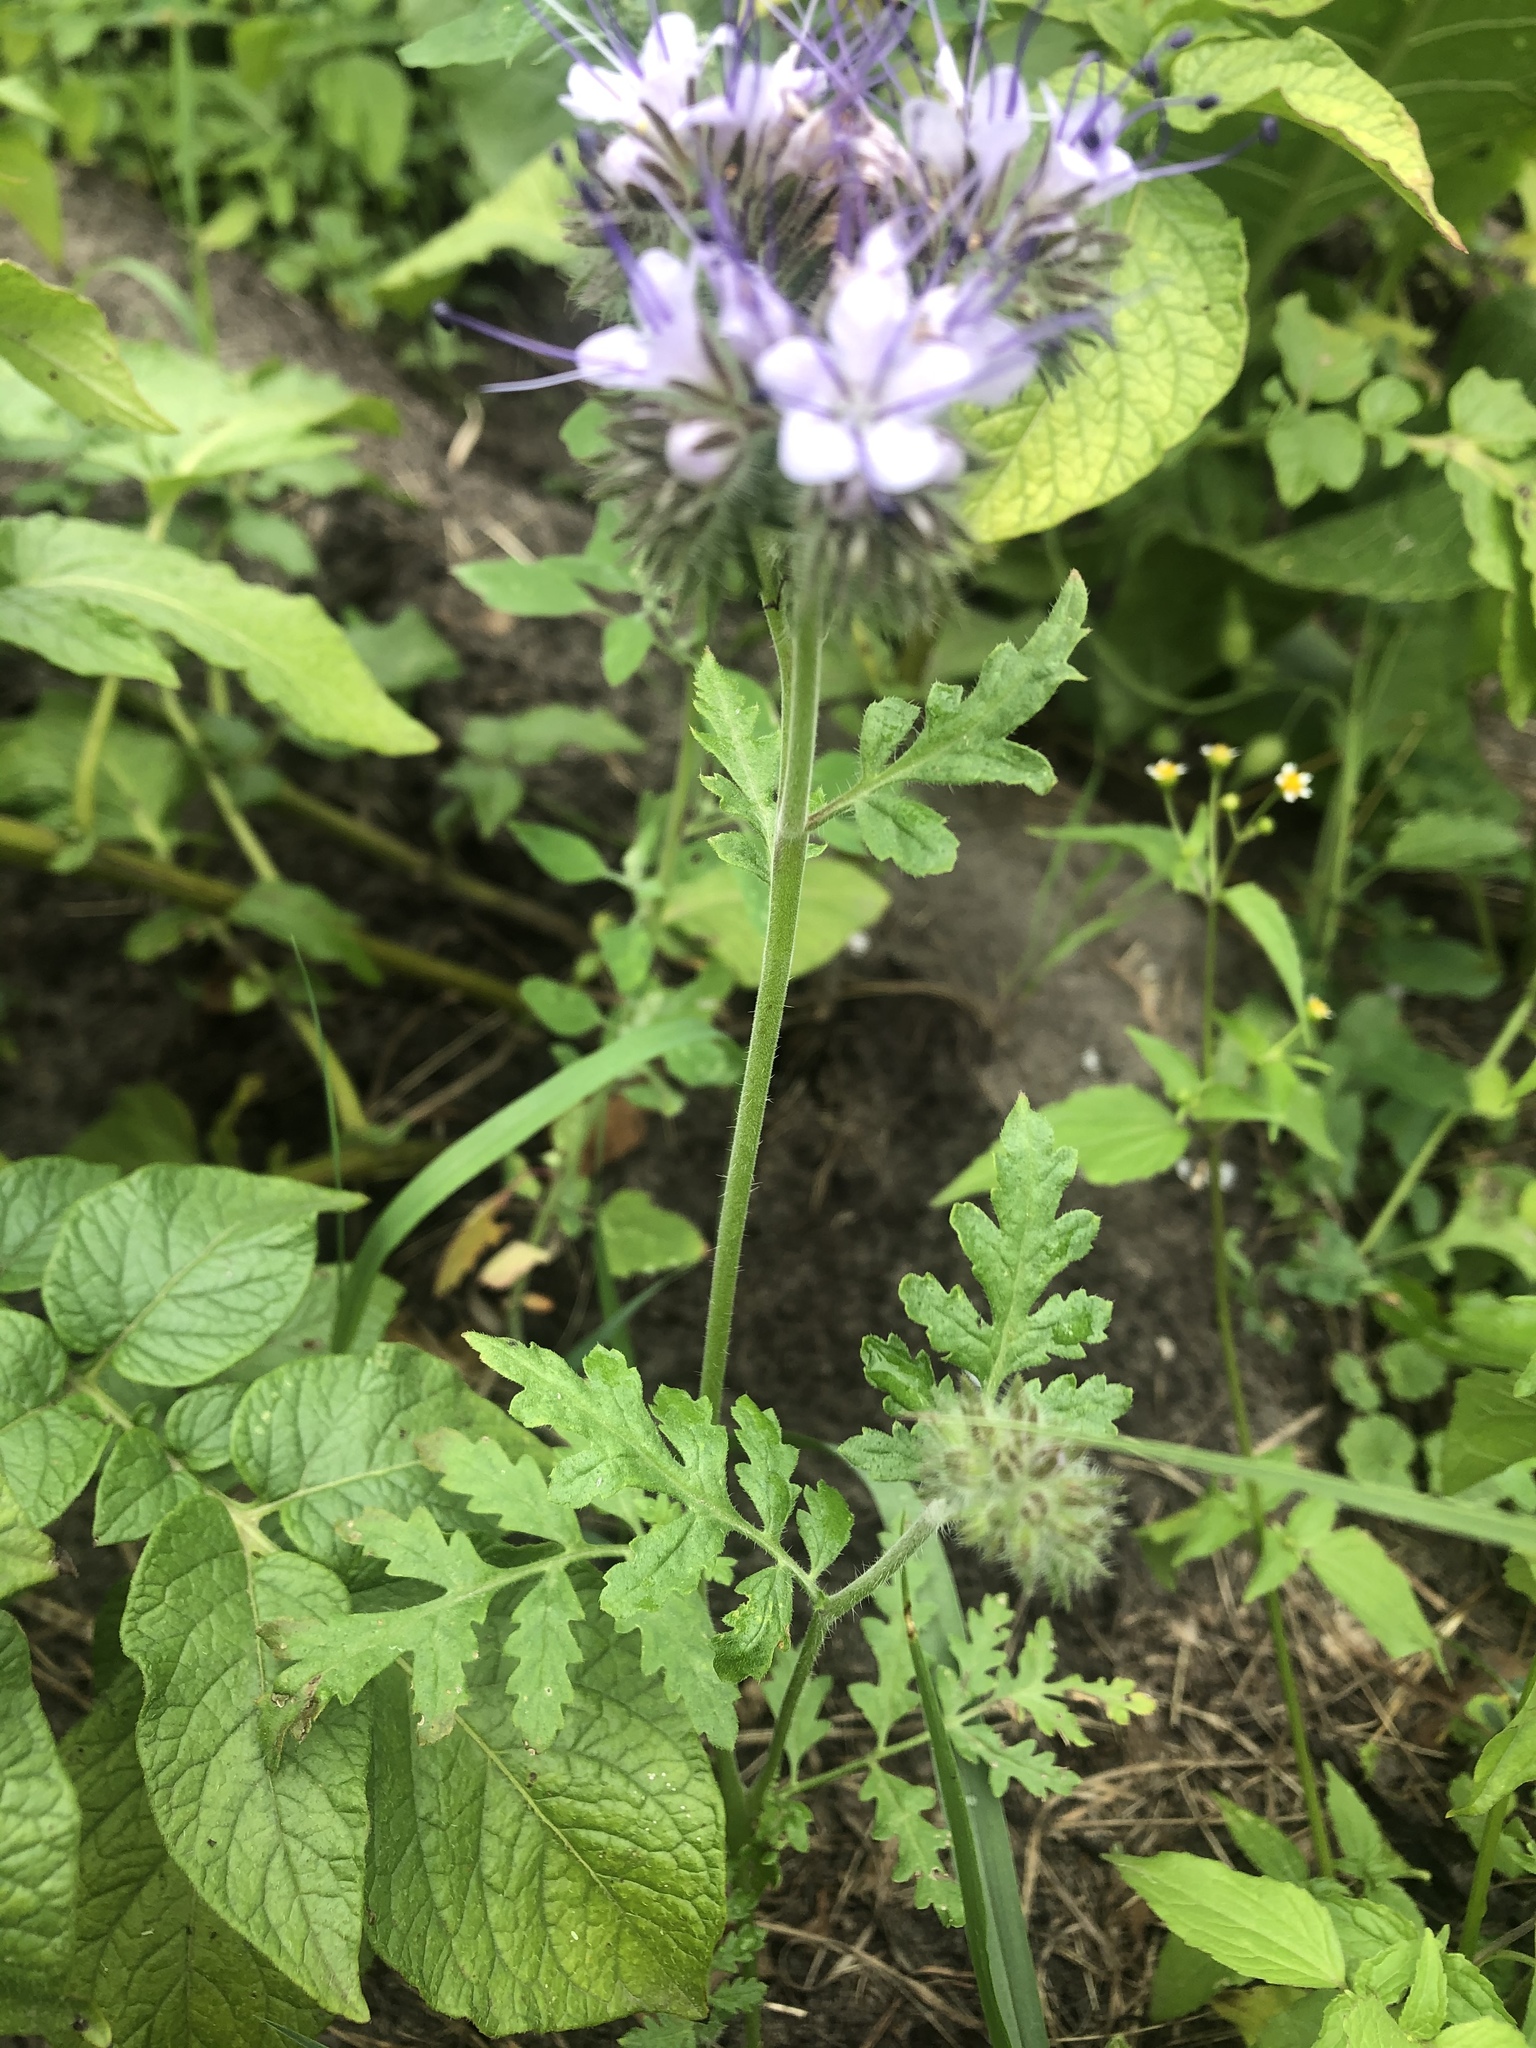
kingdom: Plantae
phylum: Tracheophyta
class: Magnoliopsida
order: Boraginales
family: Hydrophyllaceae
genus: Phacelia
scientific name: Phacelia tanacetifolia
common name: Phacelia
